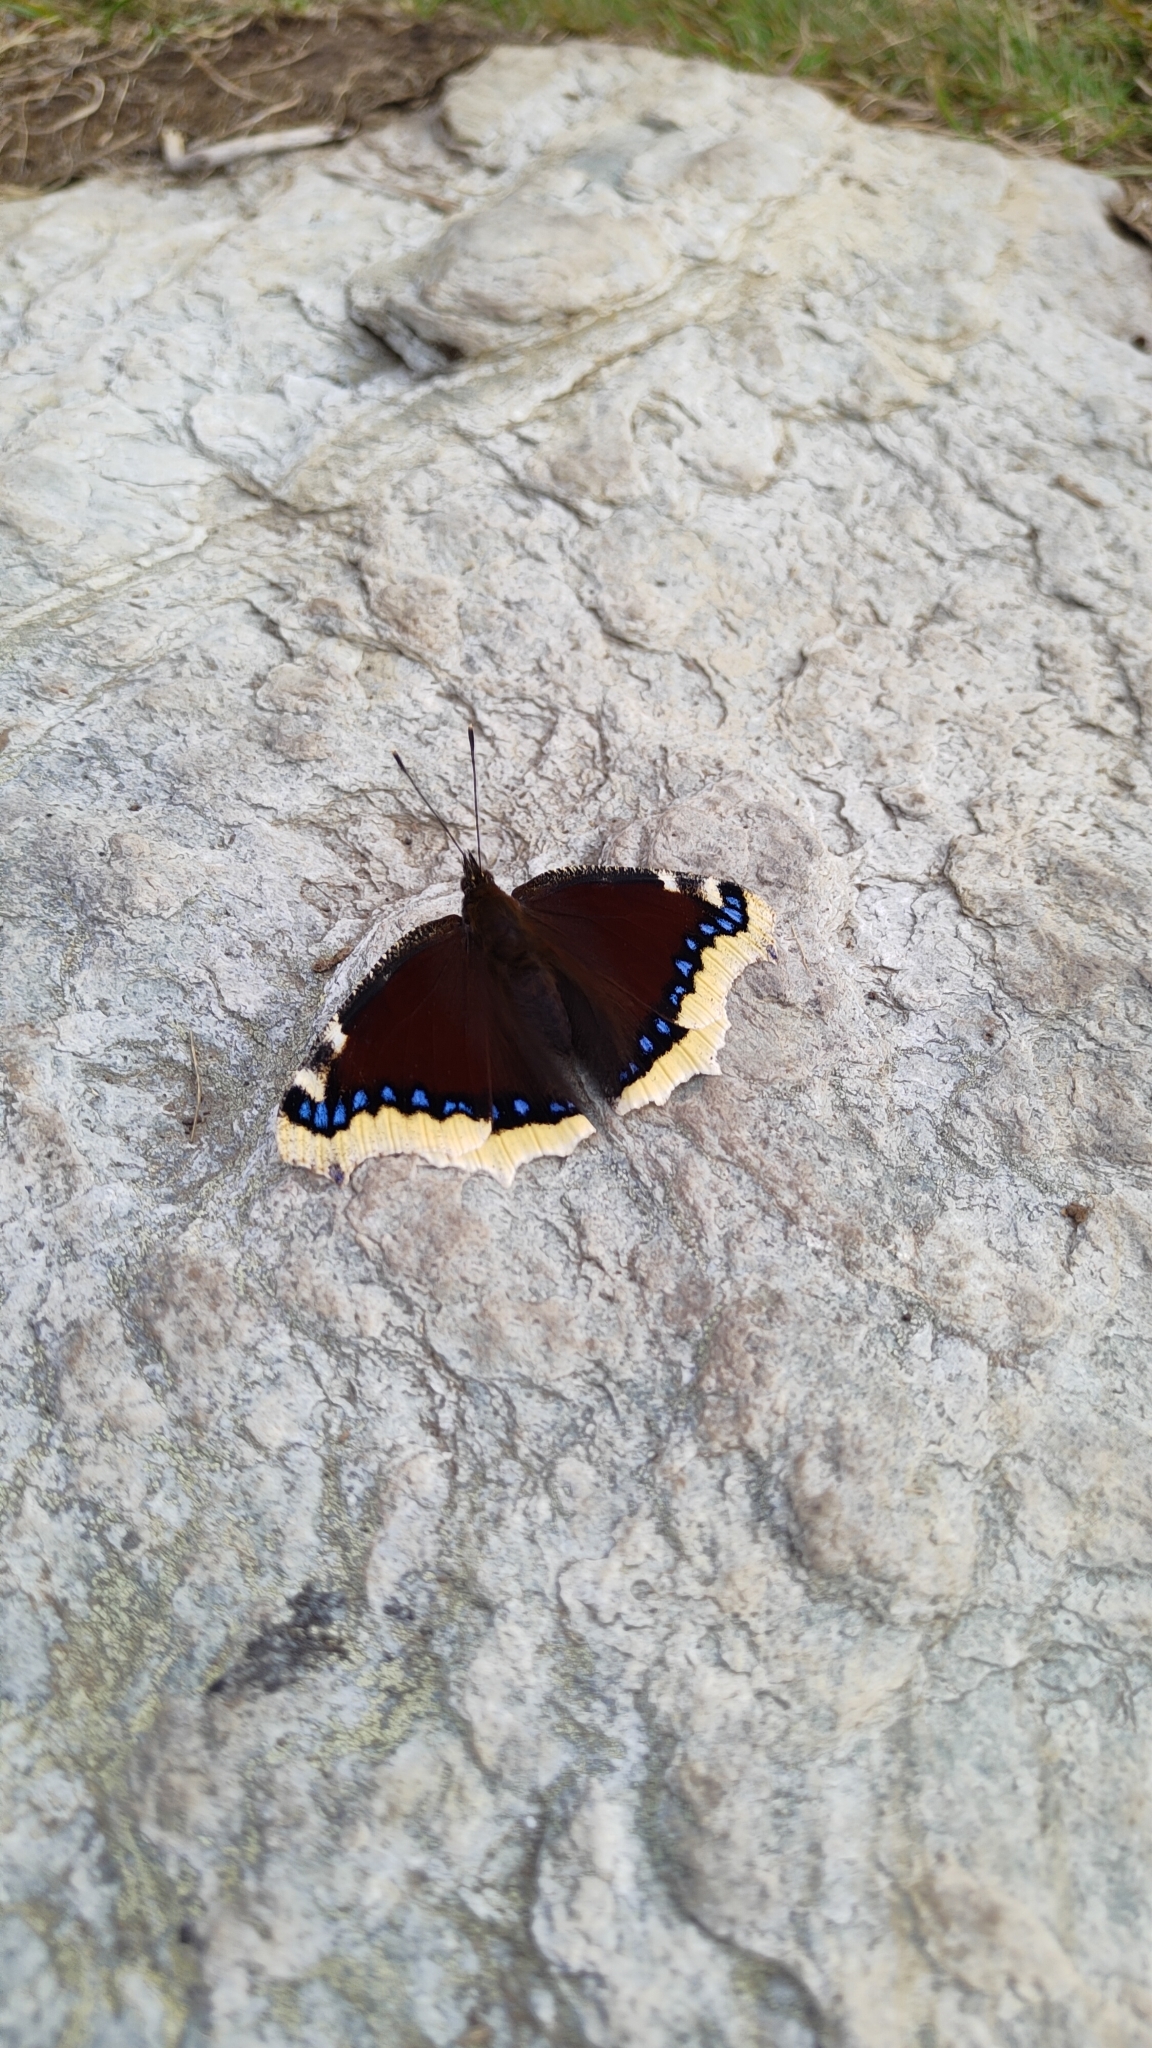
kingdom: Animalia
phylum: Arthropoda
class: Insecta
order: Lepidoptera
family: Nymphalidae
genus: Nymphalis
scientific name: Nymphalis antiopa
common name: Camberwell beauty
